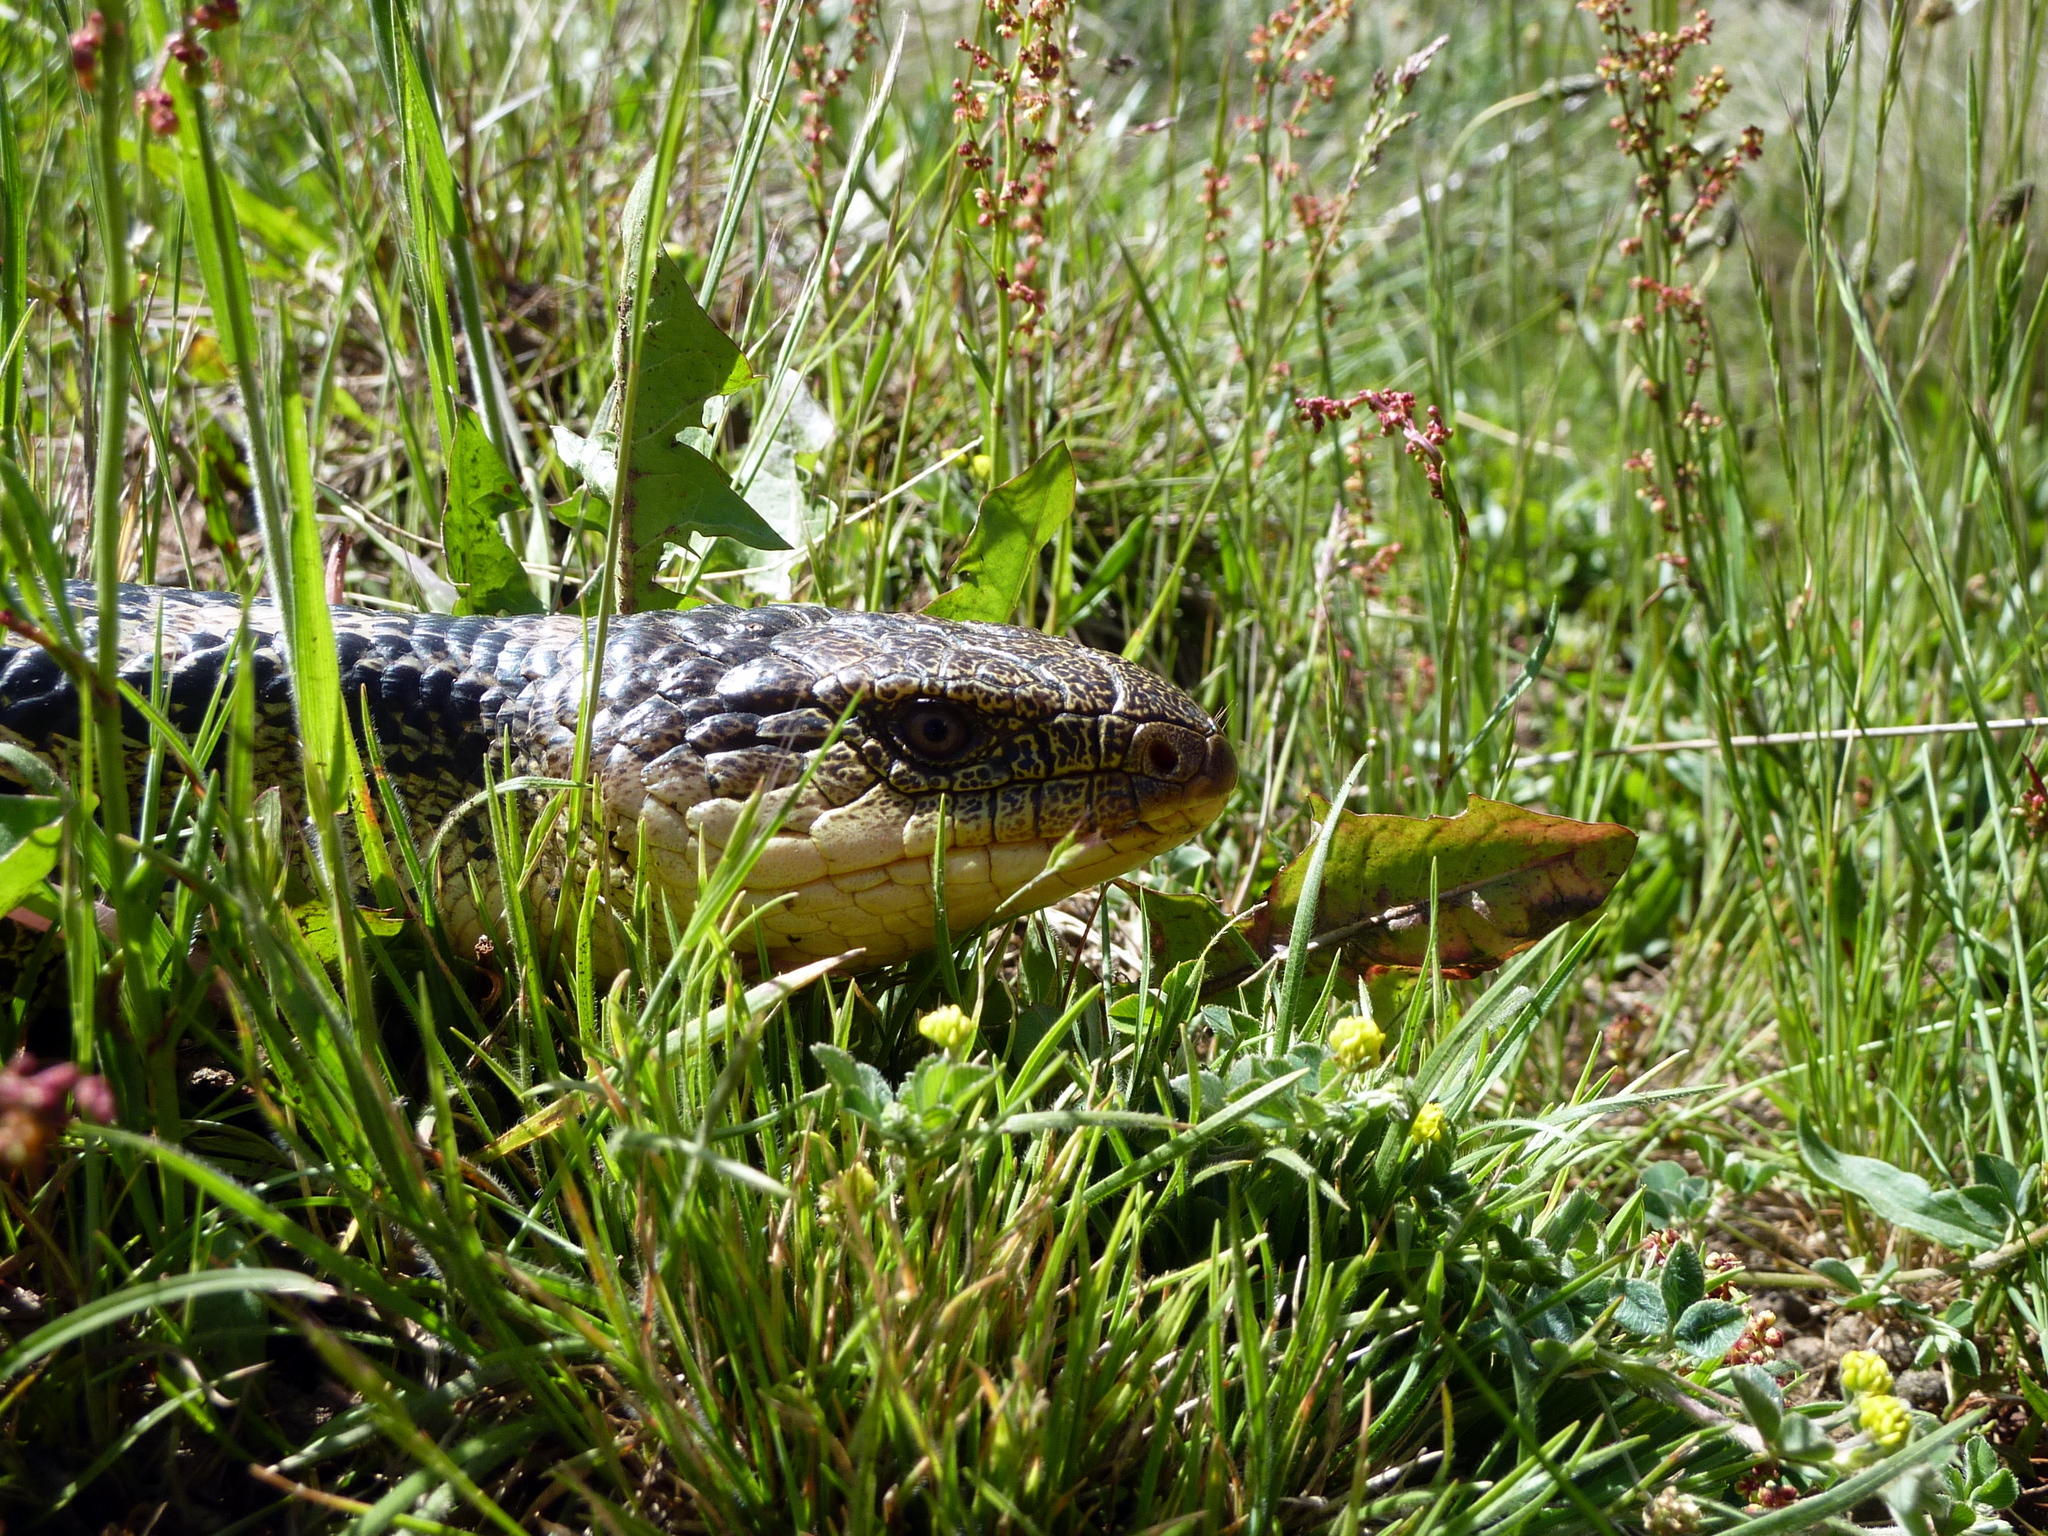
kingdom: Animalia
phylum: Chordata
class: Squamata
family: Scincidae
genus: Tiliqua
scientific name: Tiliqua nigrolutea
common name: Blotched blue-tongued lizard
